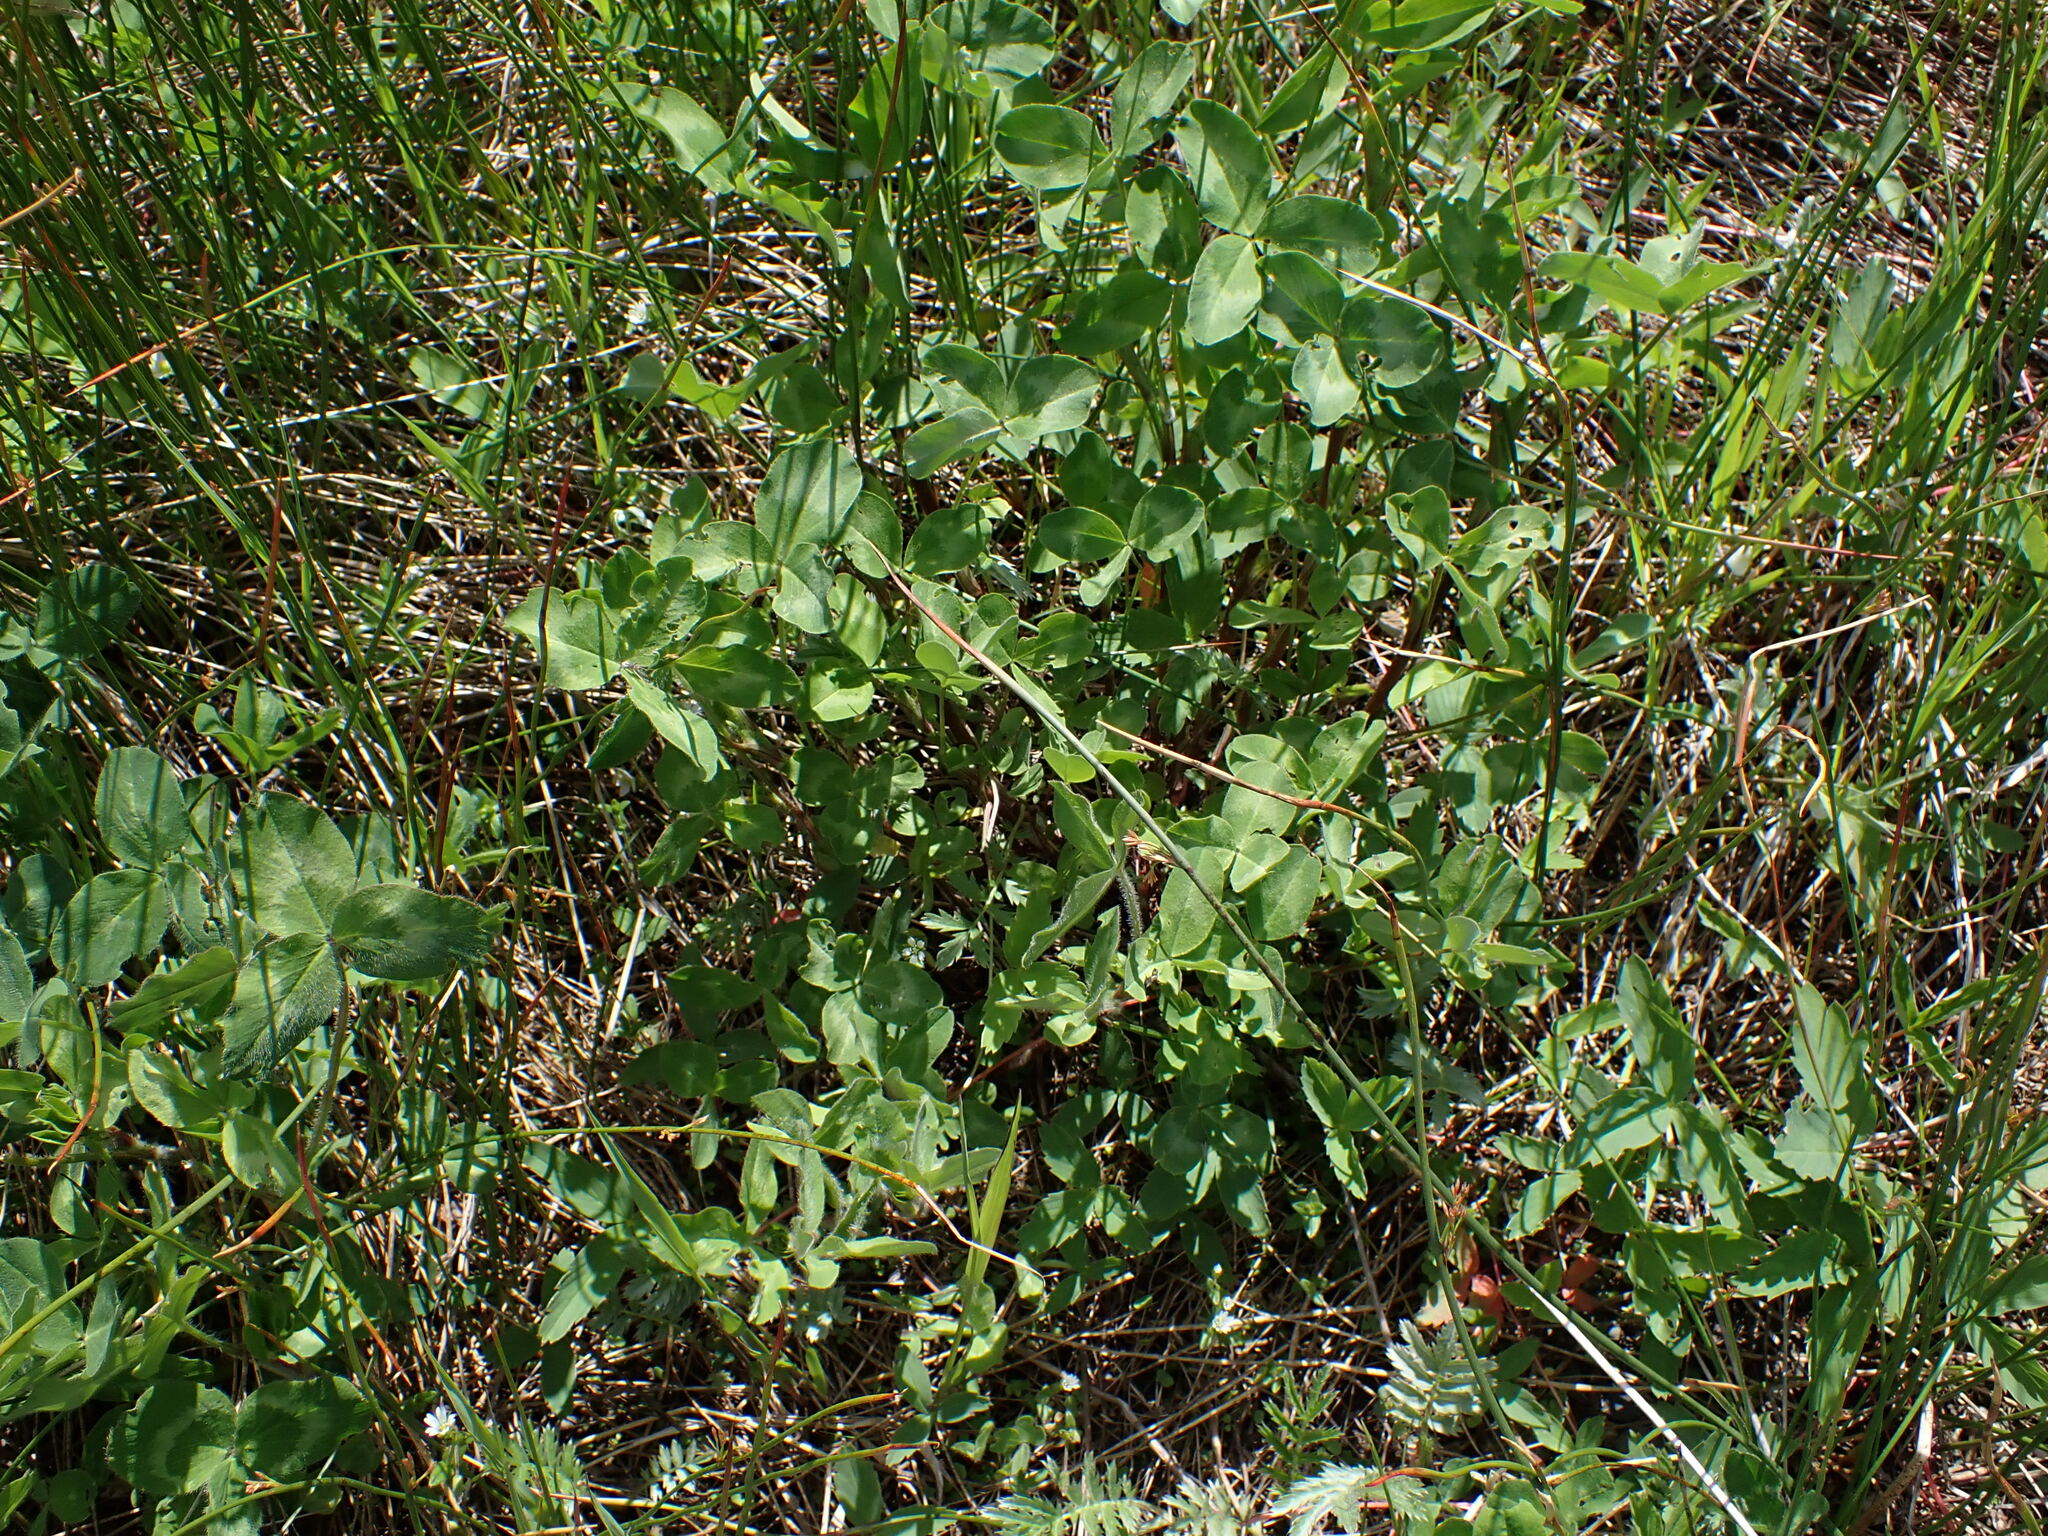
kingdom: Plantae
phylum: Tracheophyta
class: Magnoliopsida
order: Fabales
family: Fabaceae
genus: Trifolium
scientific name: Trifolium pratense
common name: Red clover
